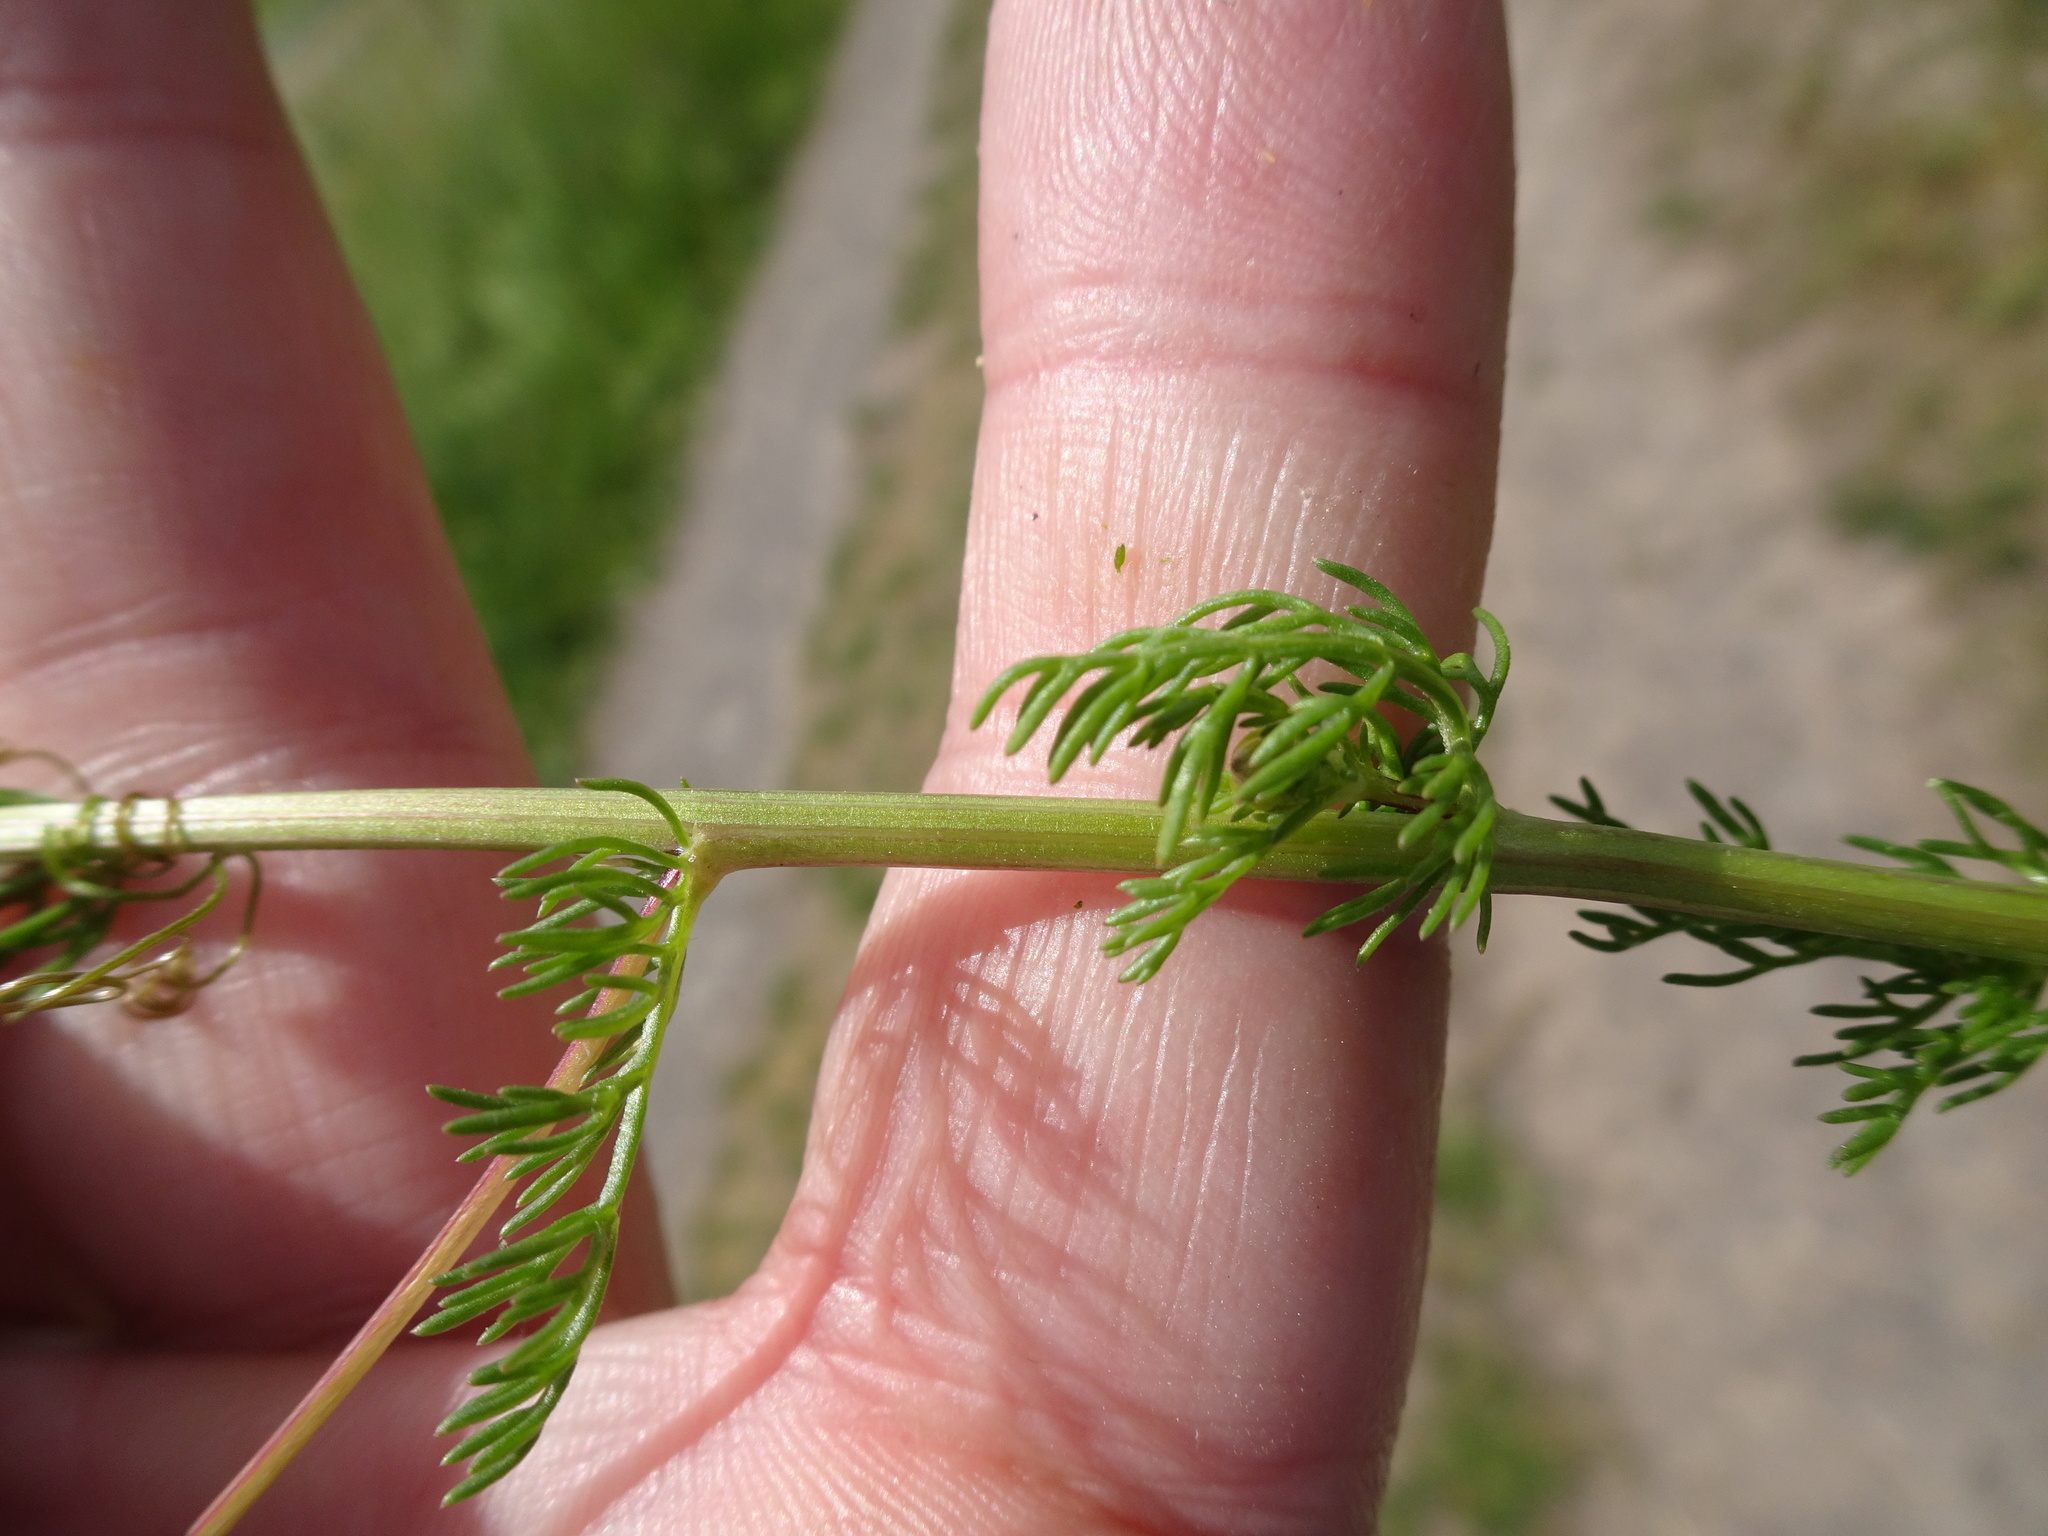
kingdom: Plantae
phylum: Tracheophyta
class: Magnoliopsida
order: Asterales
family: Asteraceae
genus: Matricaria
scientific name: Matricaria chamomilla
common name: Scented mayweed
